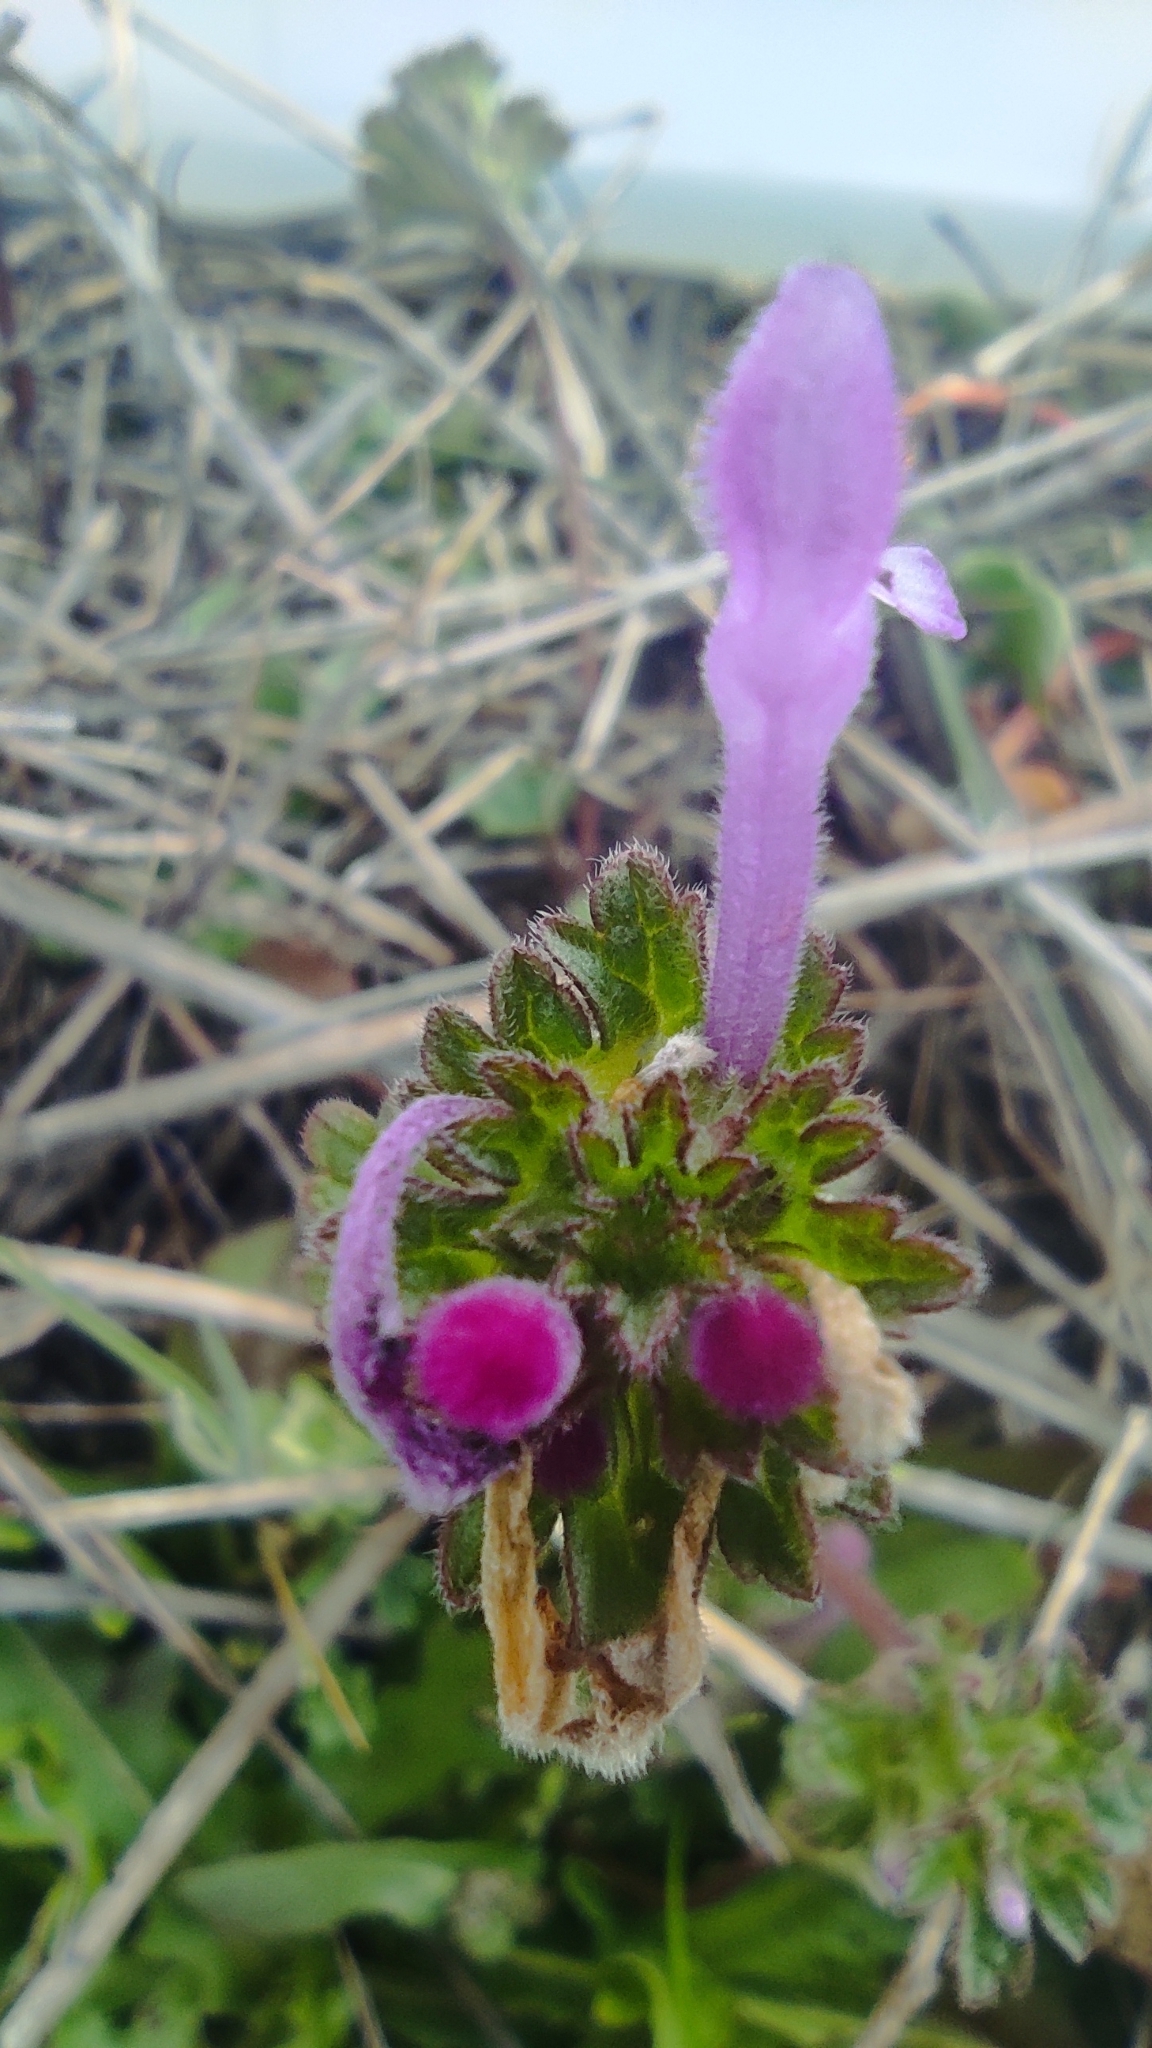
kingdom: Plantae
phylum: Tracheophyta
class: Magnoliopsida
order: Lamiales
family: Lamiaceae
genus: Lamium
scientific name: Lamium amplexicaule
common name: Henbit dead-nettle
